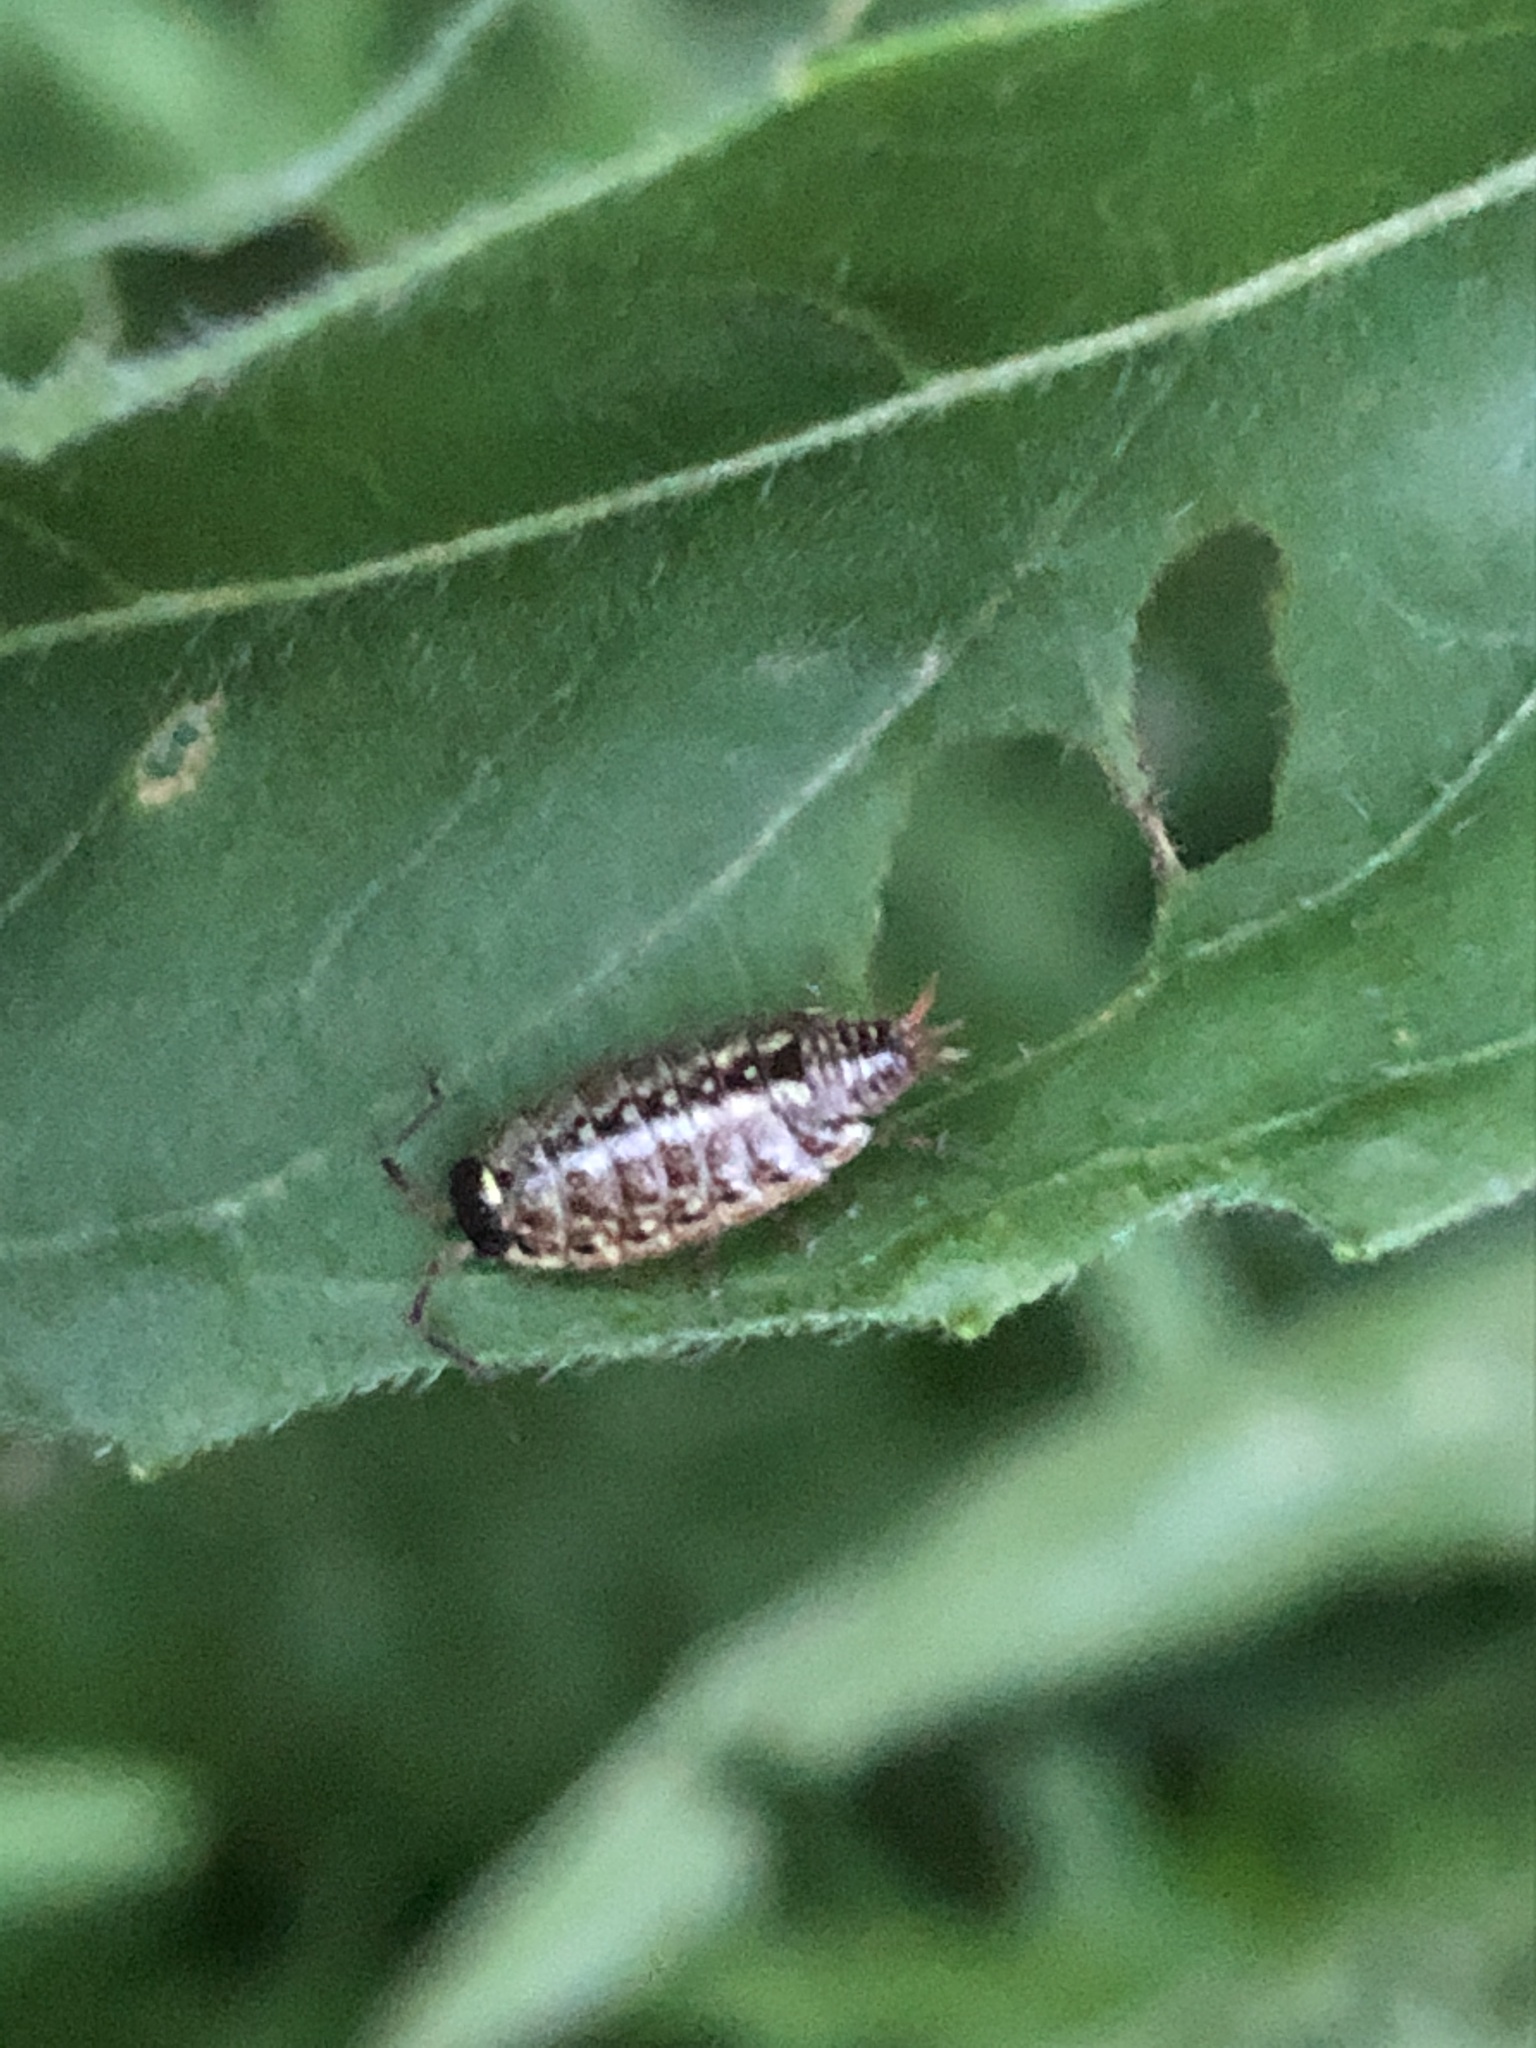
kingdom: Animalia
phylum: Arthropoda
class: Malacostraca
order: Isopoda
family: Philosciidae
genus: Philoscia
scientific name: Philoscia muscorum
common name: Common striped woodlouse
